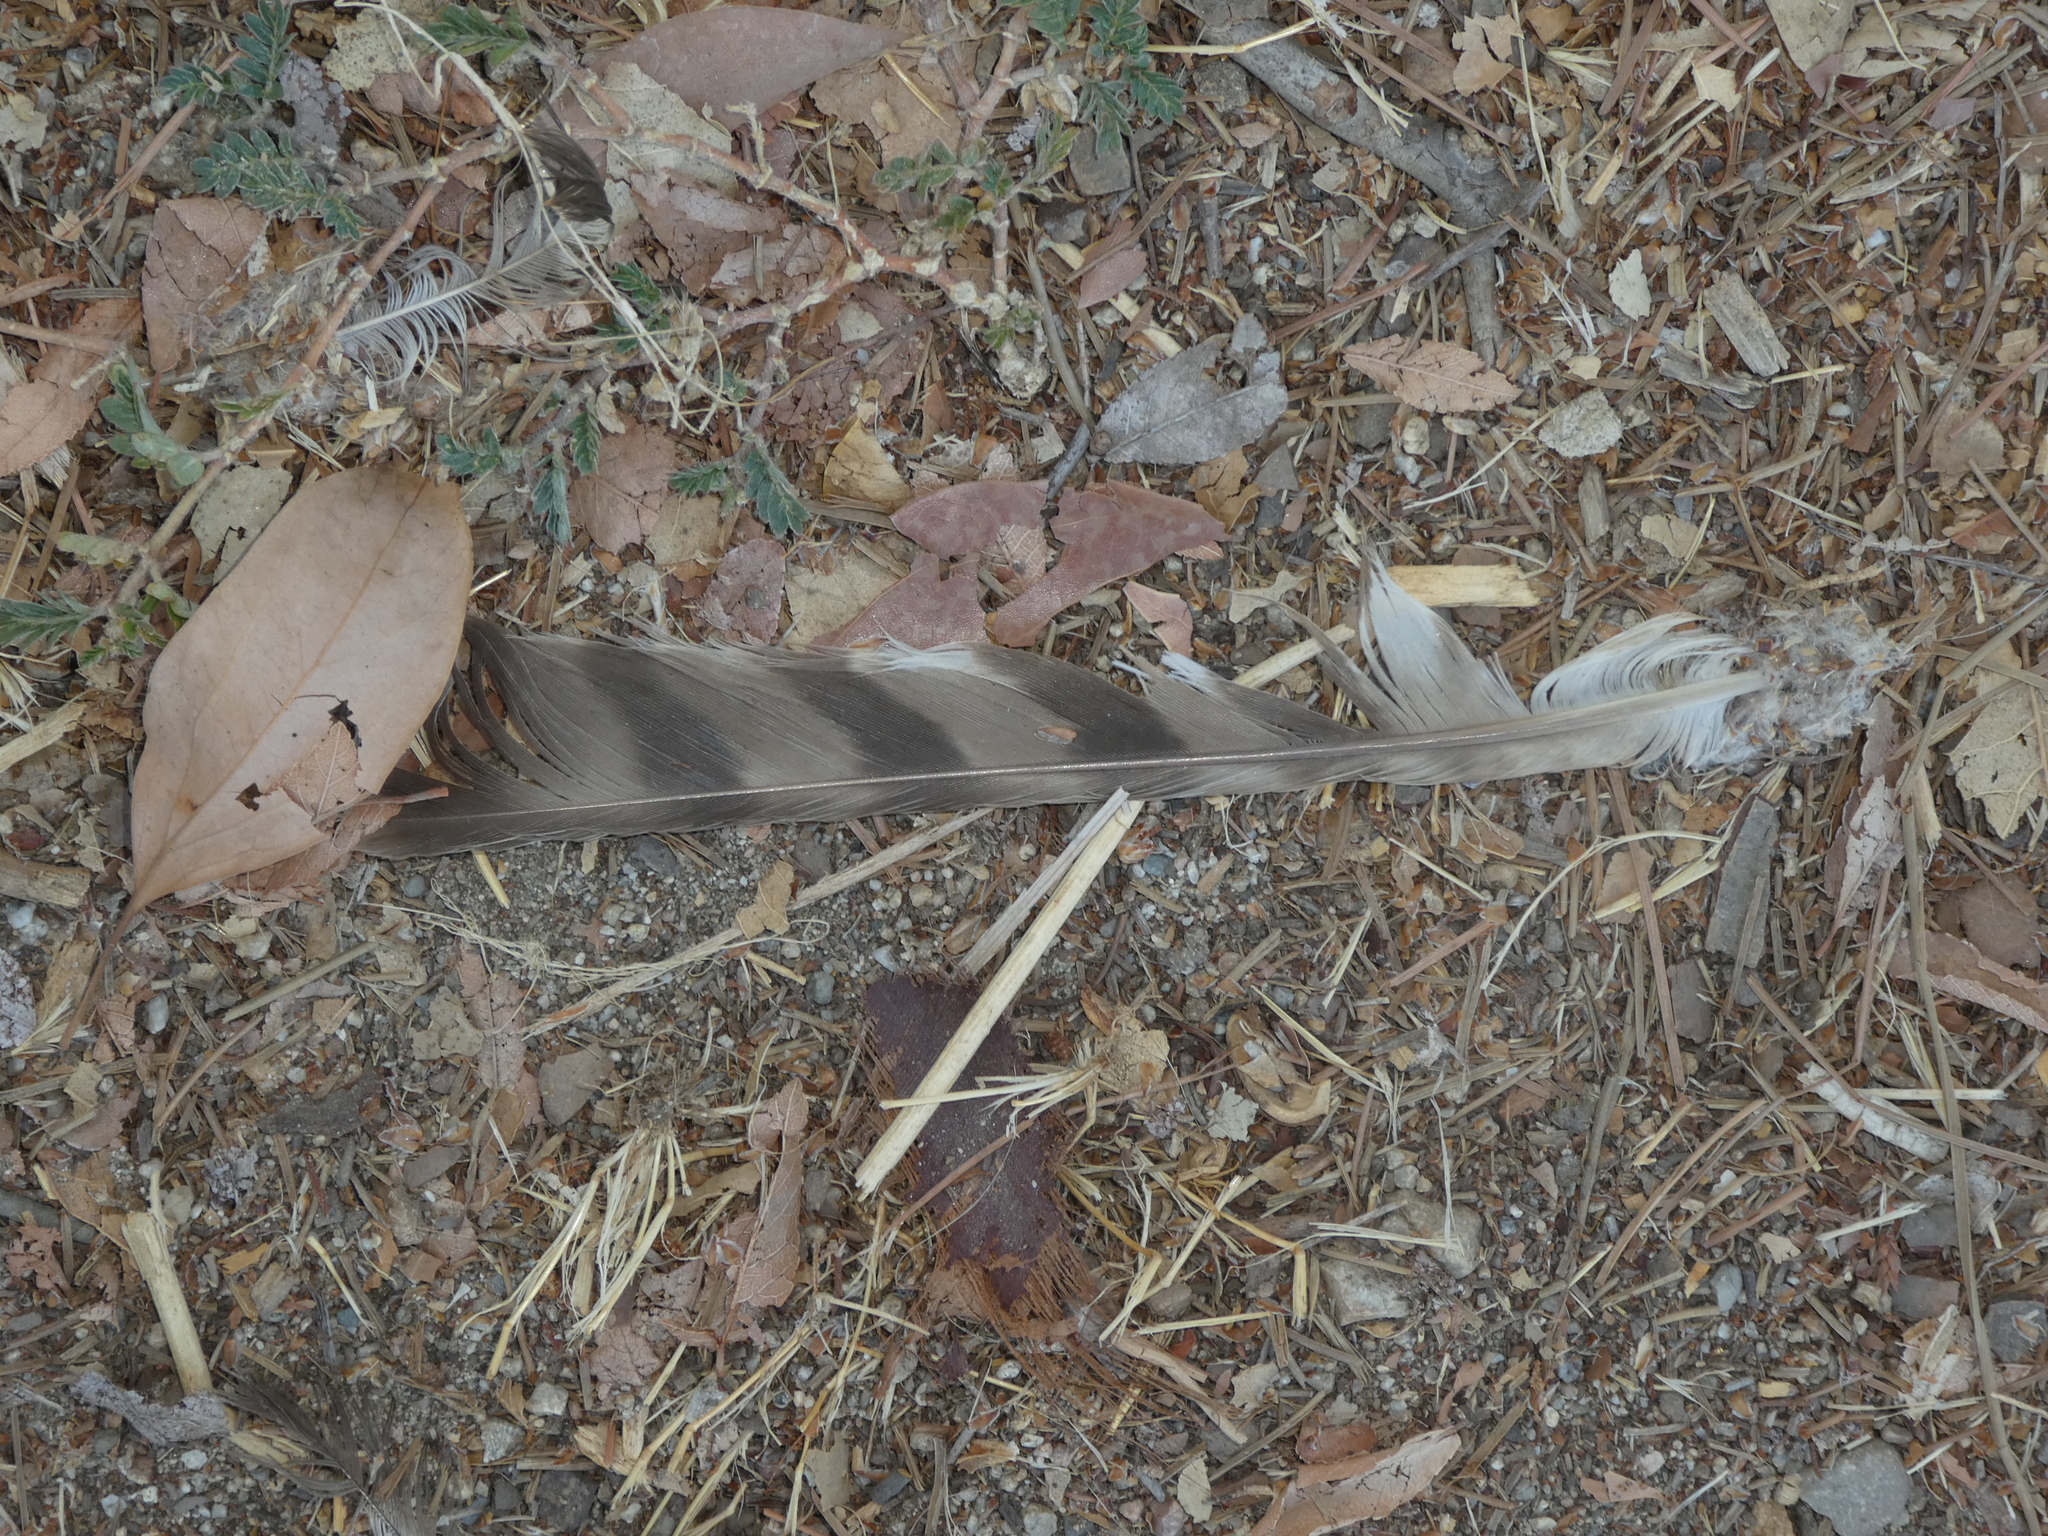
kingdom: Animalia
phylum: Chordata
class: Aves
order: Accipitriformes
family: Accipitridae
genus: Accipiter
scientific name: Accipiter cooperii
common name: Cooper's hawk
